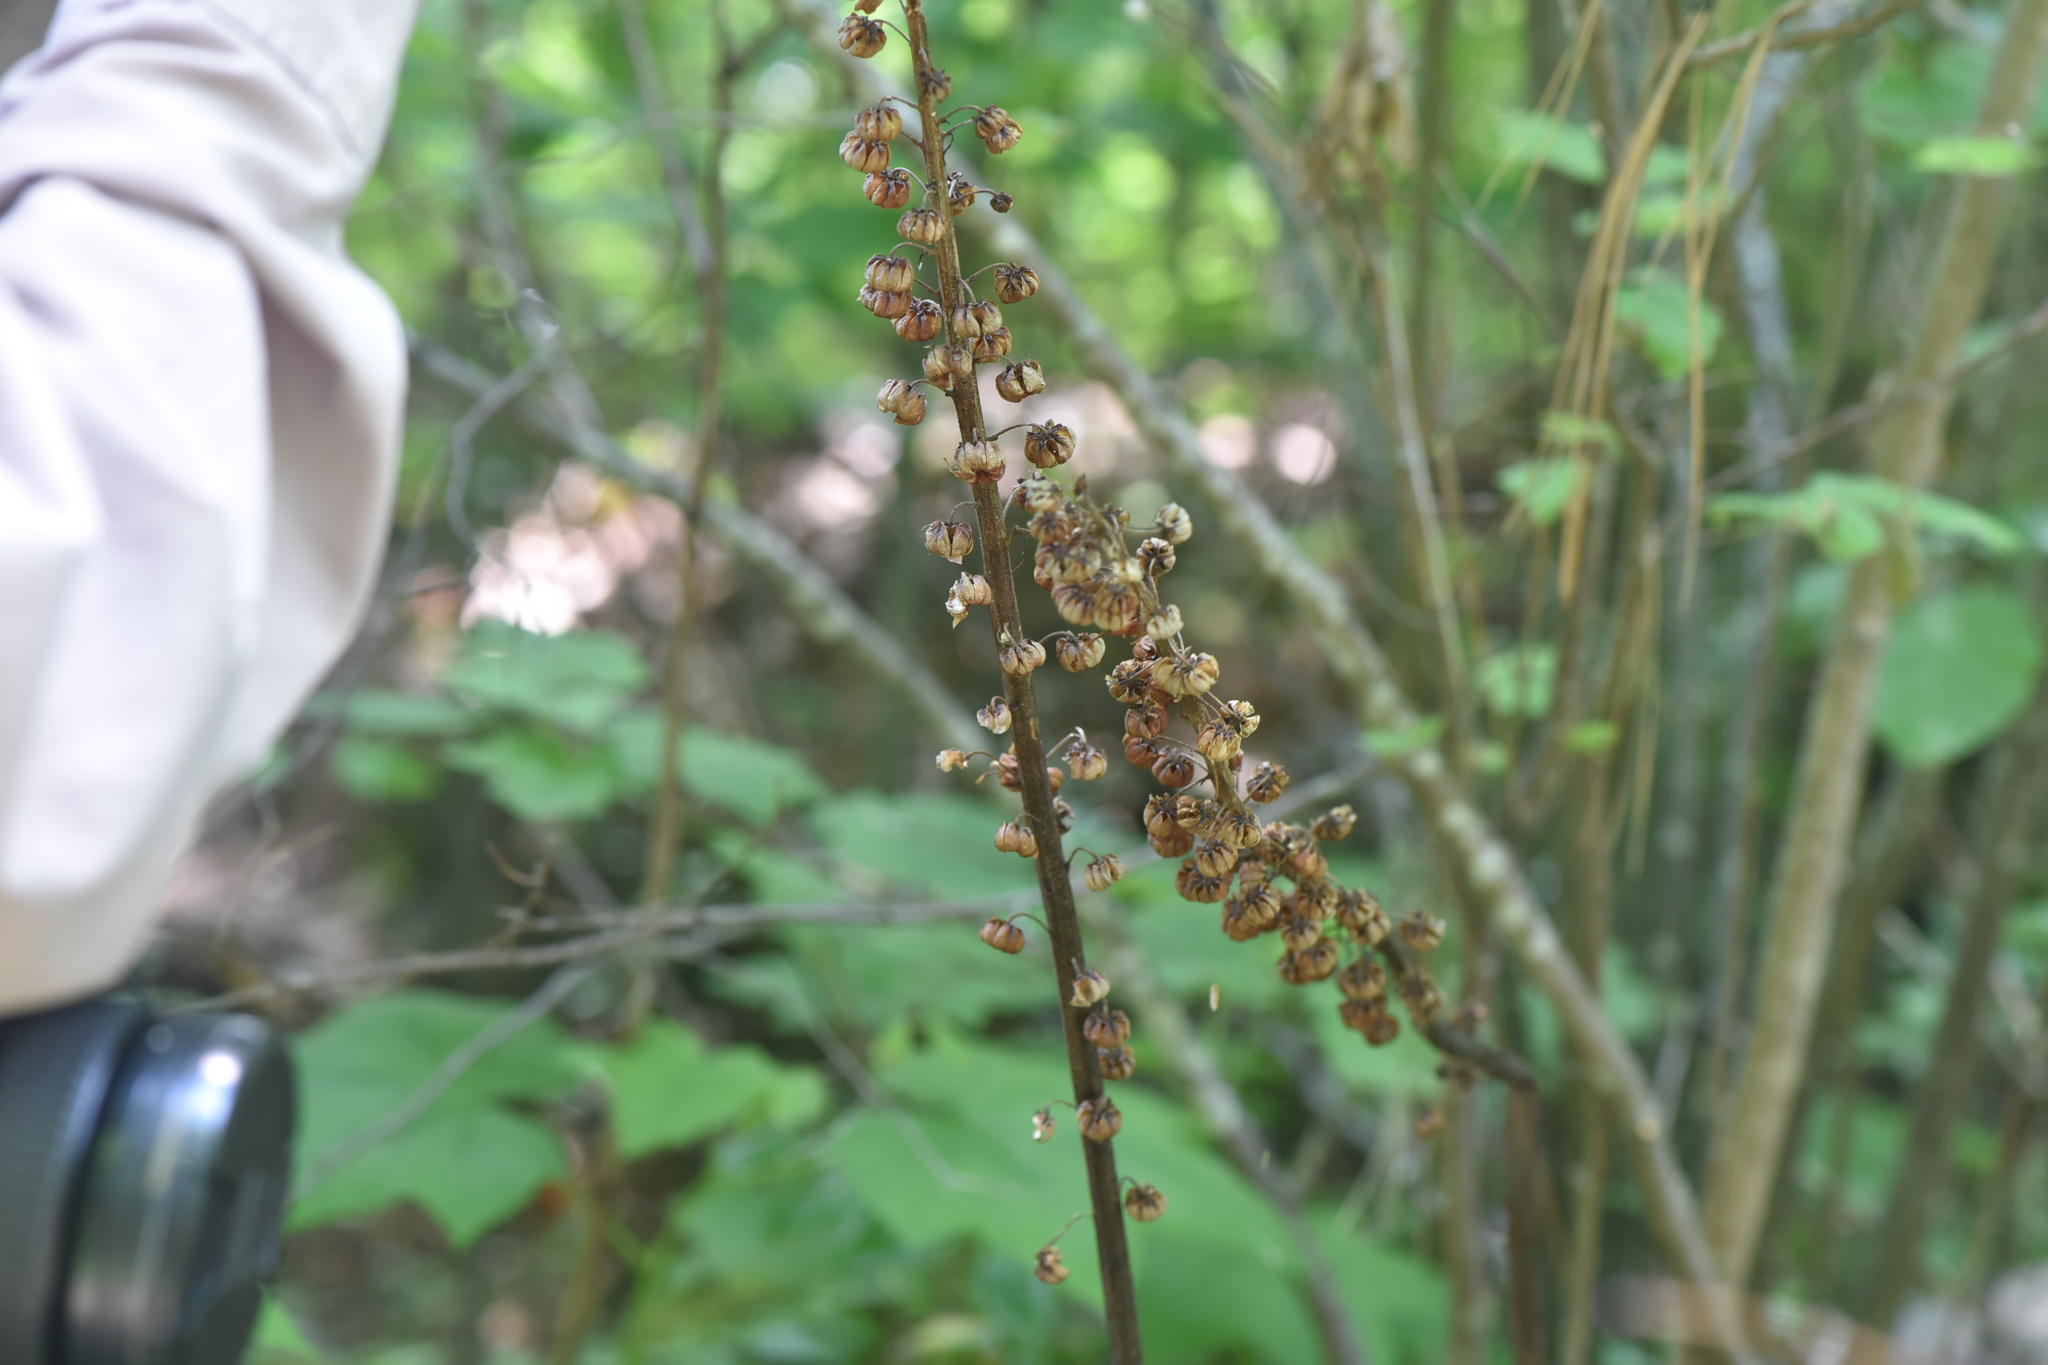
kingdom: Plantae
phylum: Tracheophyta
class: Magnoliopsida
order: Ericales
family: Ericaceae
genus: Pterospora
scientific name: Pterospora andromedea
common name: Giant bird's-nest
